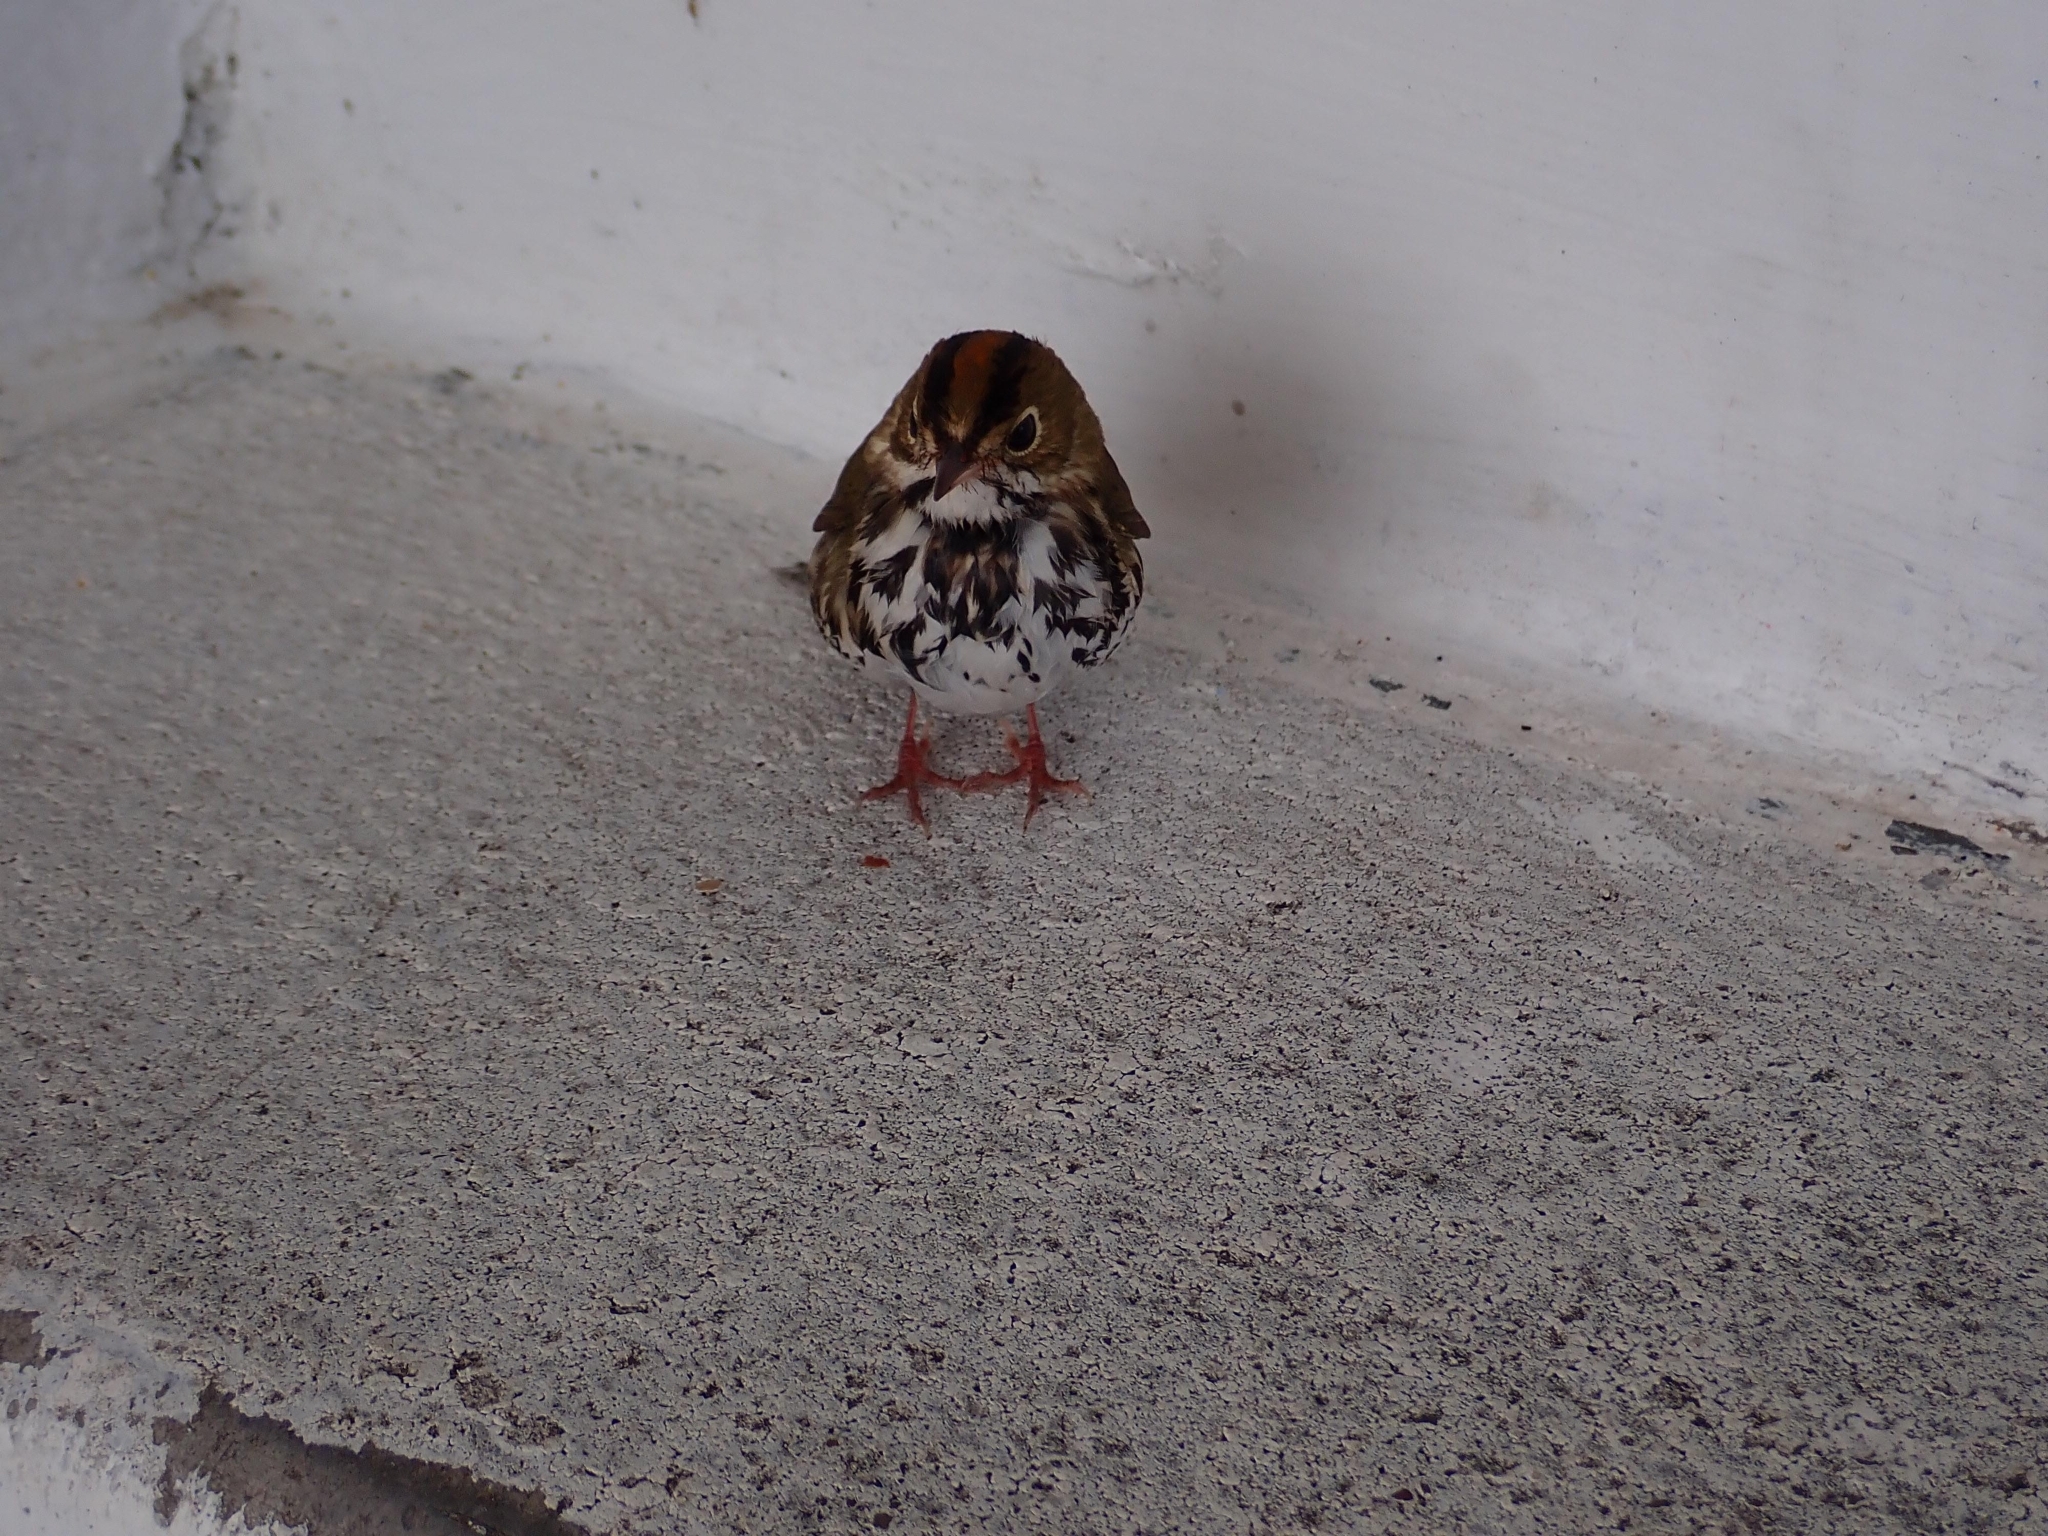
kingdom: Animalia
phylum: Chordata
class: Aves
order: Passeriformes
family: Parulidae
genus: Seiurus
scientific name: Seiurus aurocapilla
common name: Ovenbird
